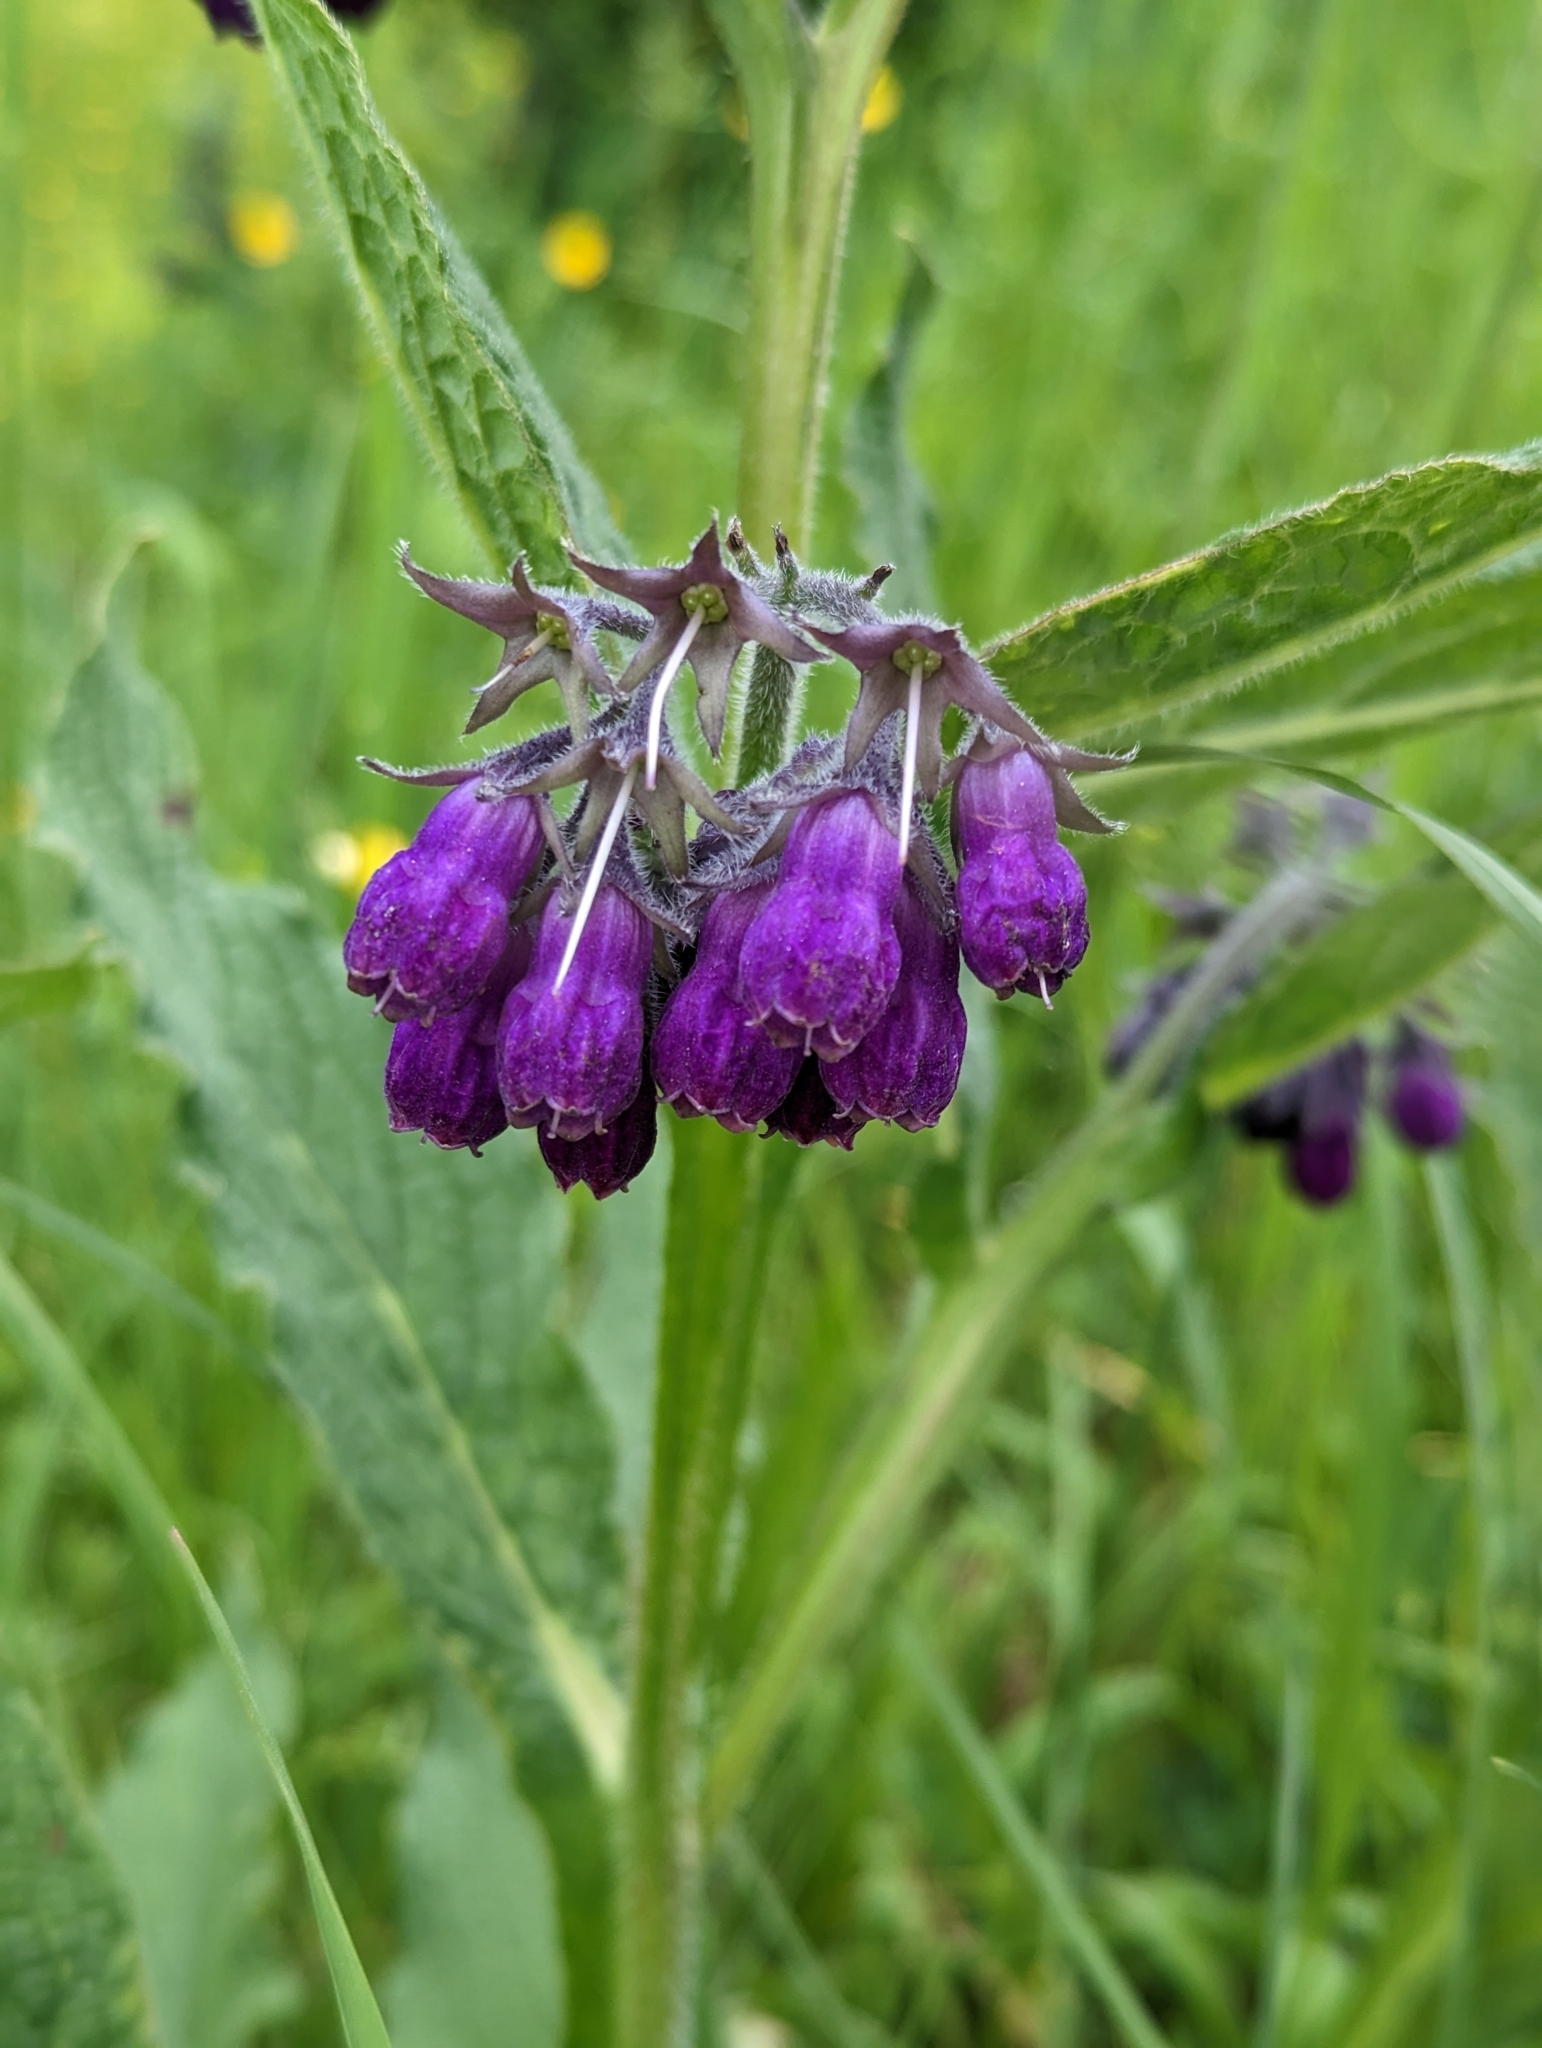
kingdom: Plantae
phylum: Tracheophyta
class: Magnoliopsida
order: Boraginales
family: Boraginaceae
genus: Symphytum
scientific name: Symphytum officinale
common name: Common comfrey
